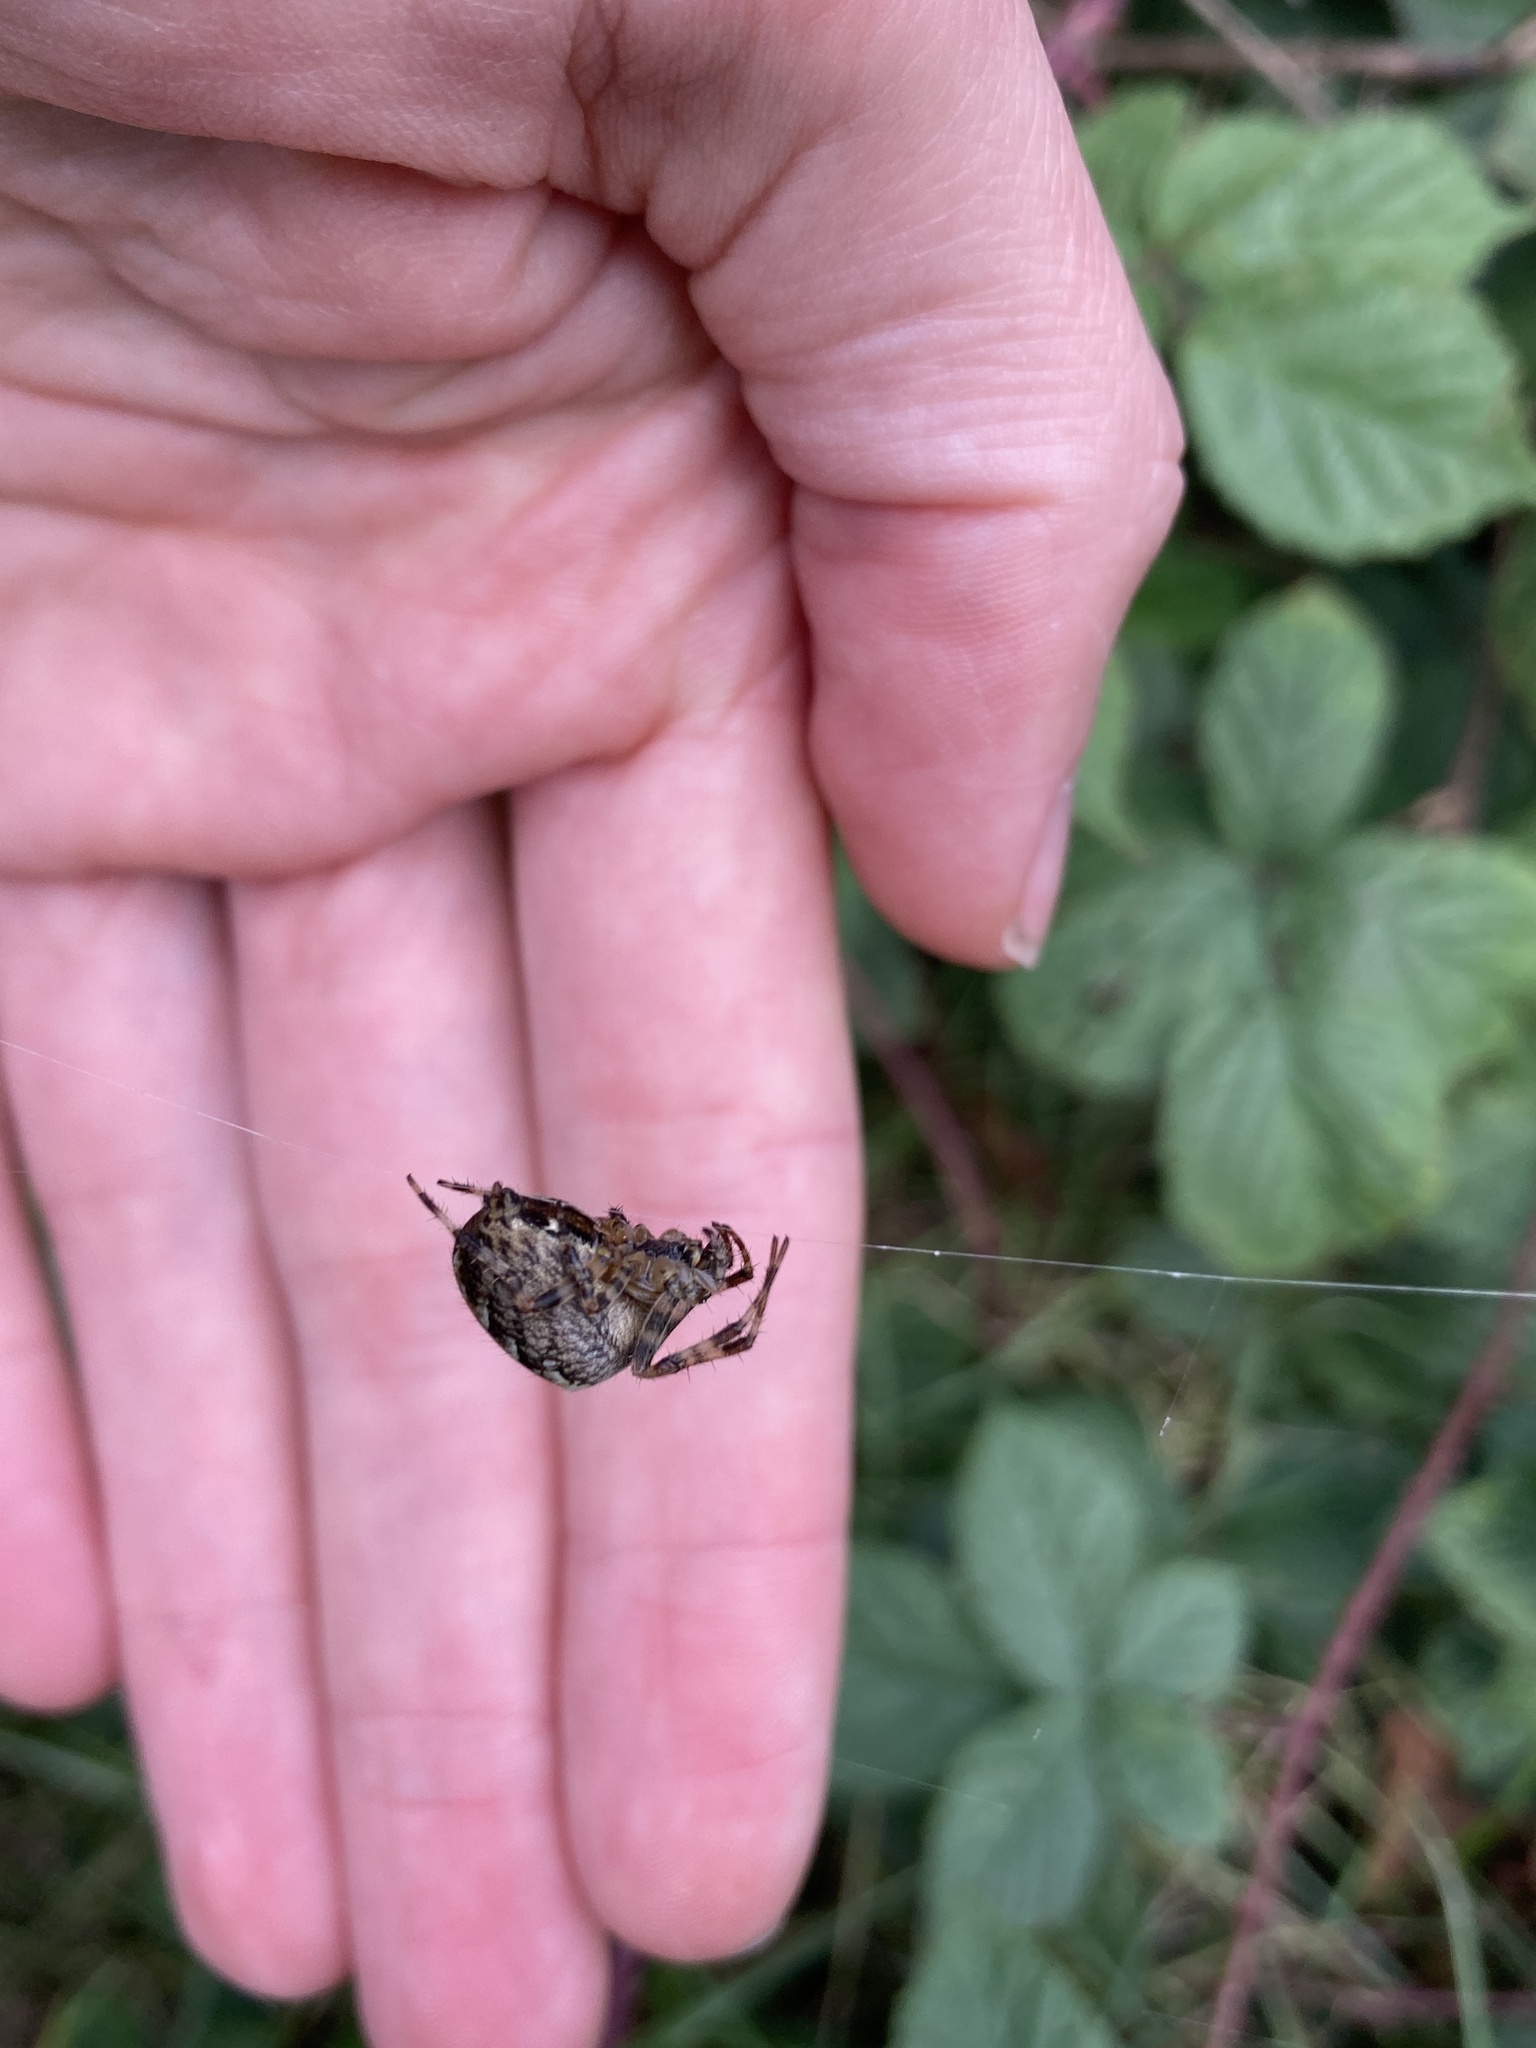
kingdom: Animalia
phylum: Arthropoda
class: Arachnida
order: Araneae
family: Araneidae
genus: Araneus
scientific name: Araneus diadematus
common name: Cross orbweaver
